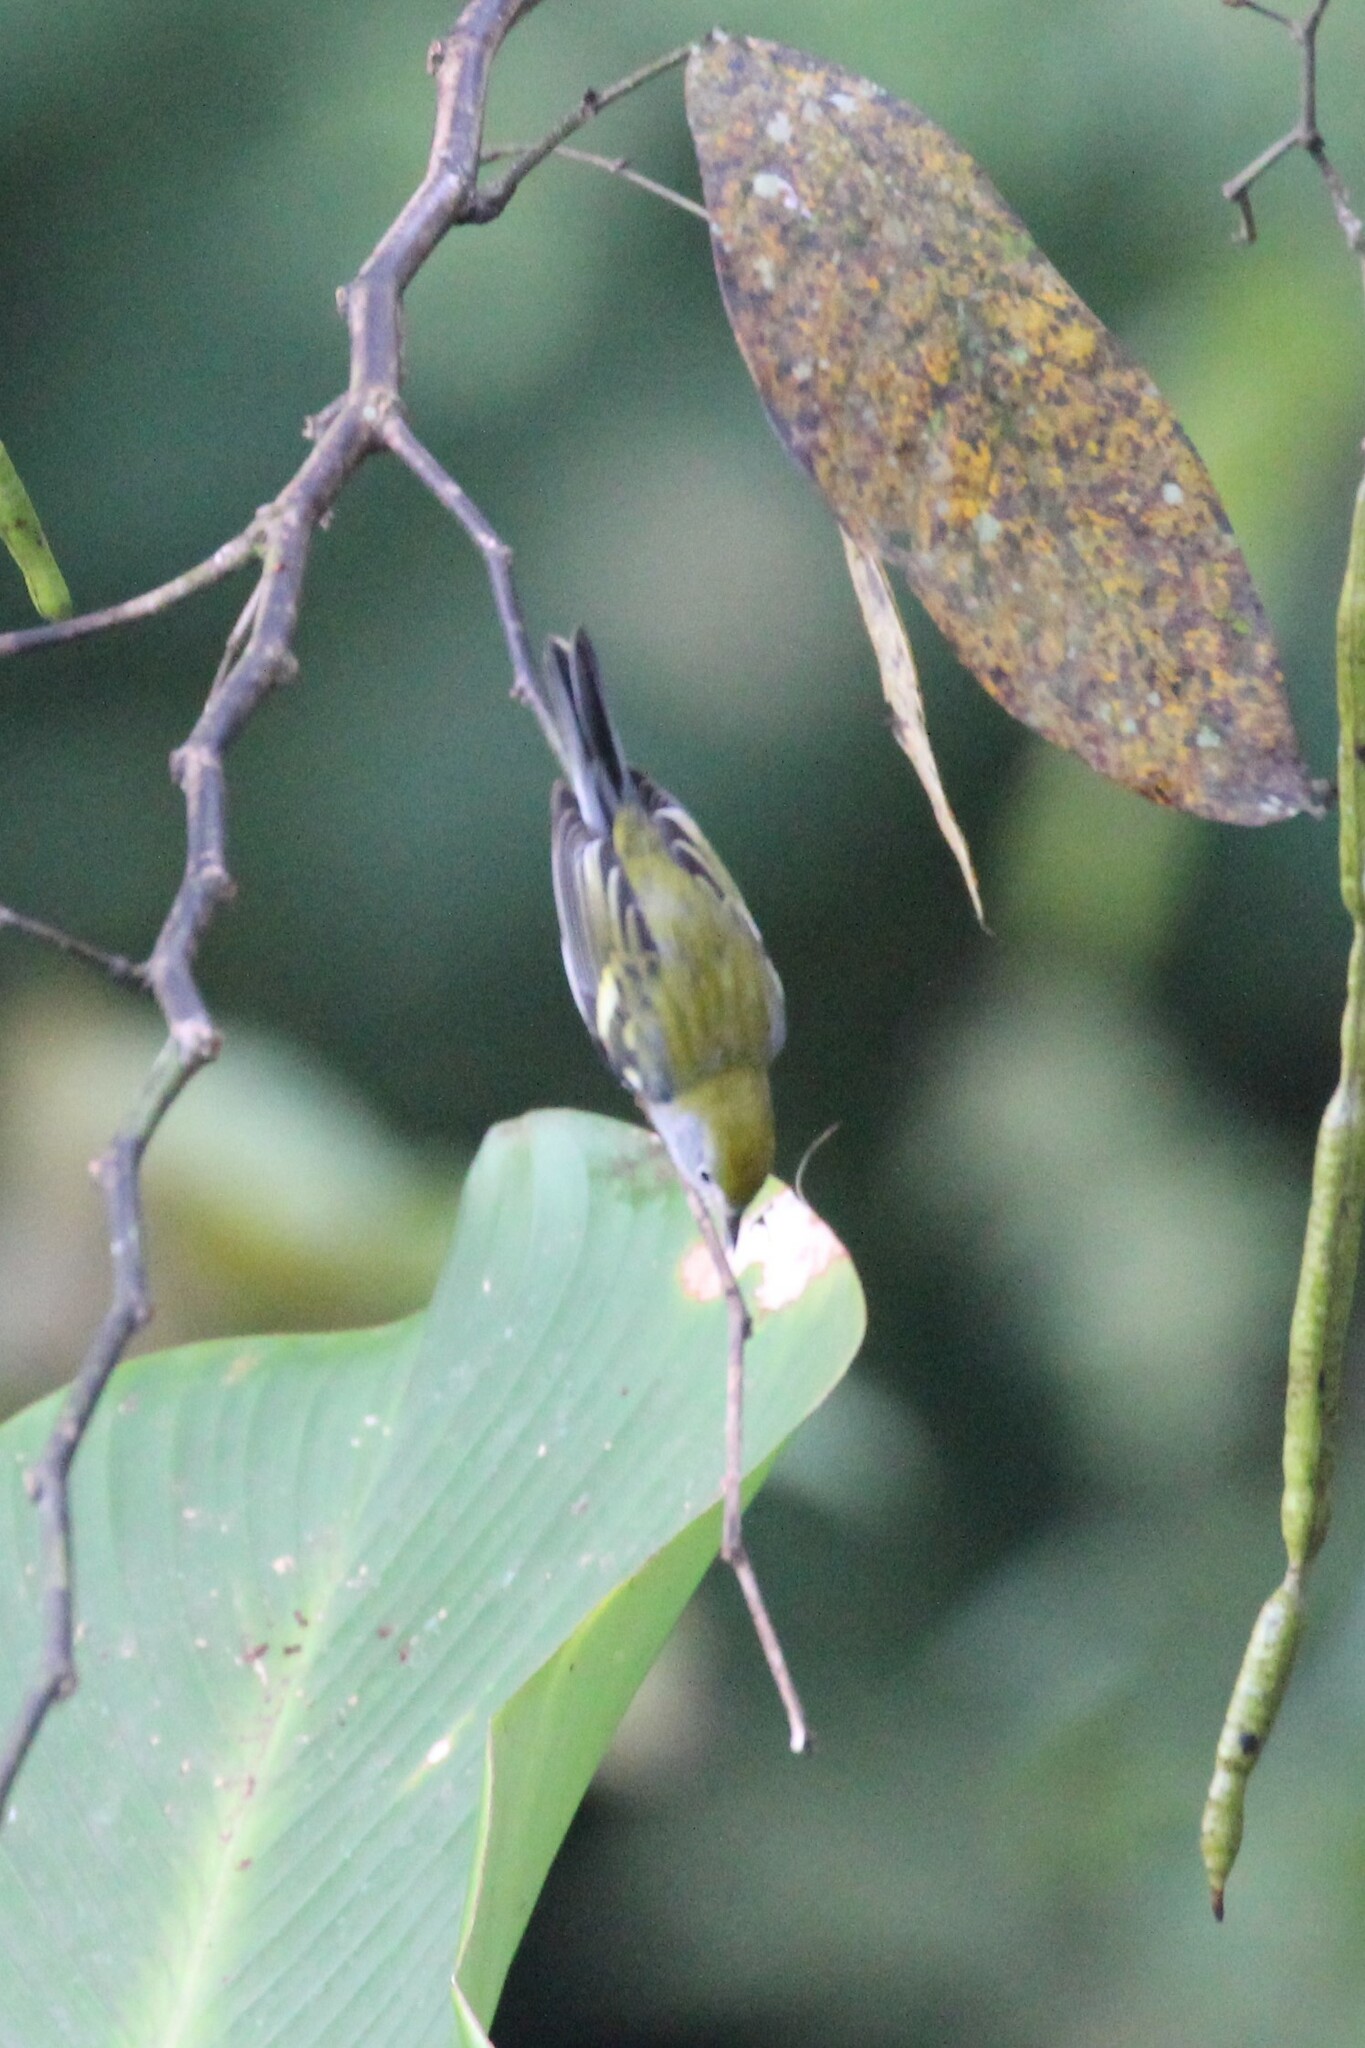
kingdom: Animalia
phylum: Chordata
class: Aves
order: Passeriformes
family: Parulidae
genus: Setophaga
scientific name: Setophaga pensylvanica
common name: Chestnut-sided warbler
